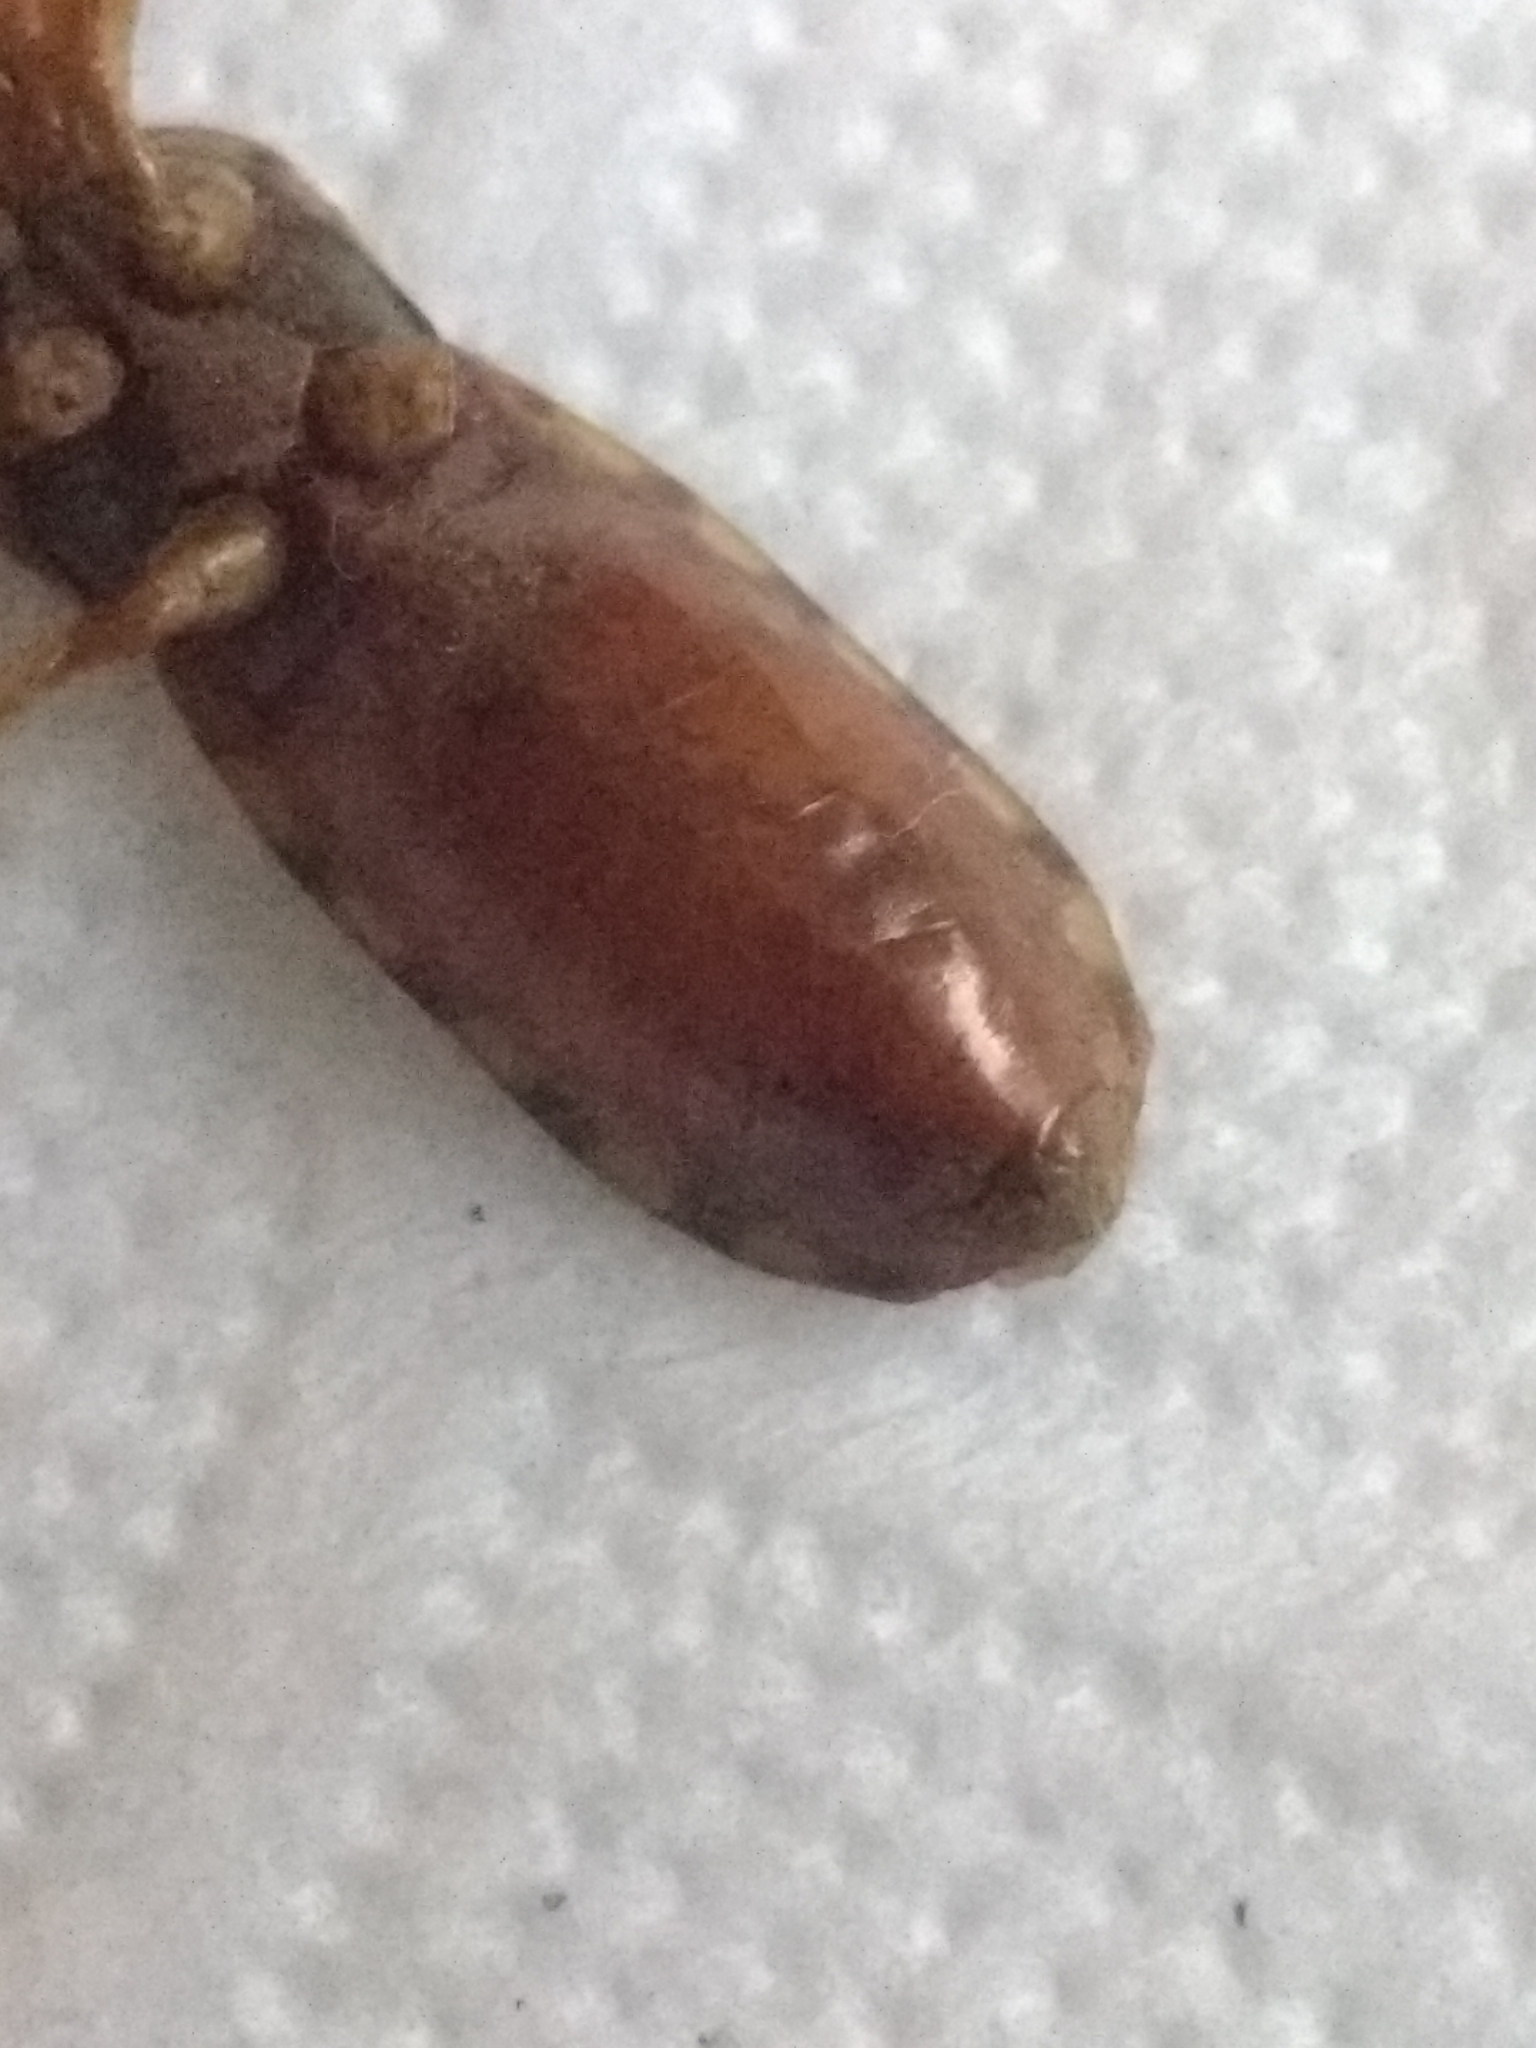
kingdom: Animalia
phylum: Arthropoda
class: Insecta
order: Hemiptera
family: Reduviidae
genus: Rasahus
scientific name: Rasahus thoracicus
